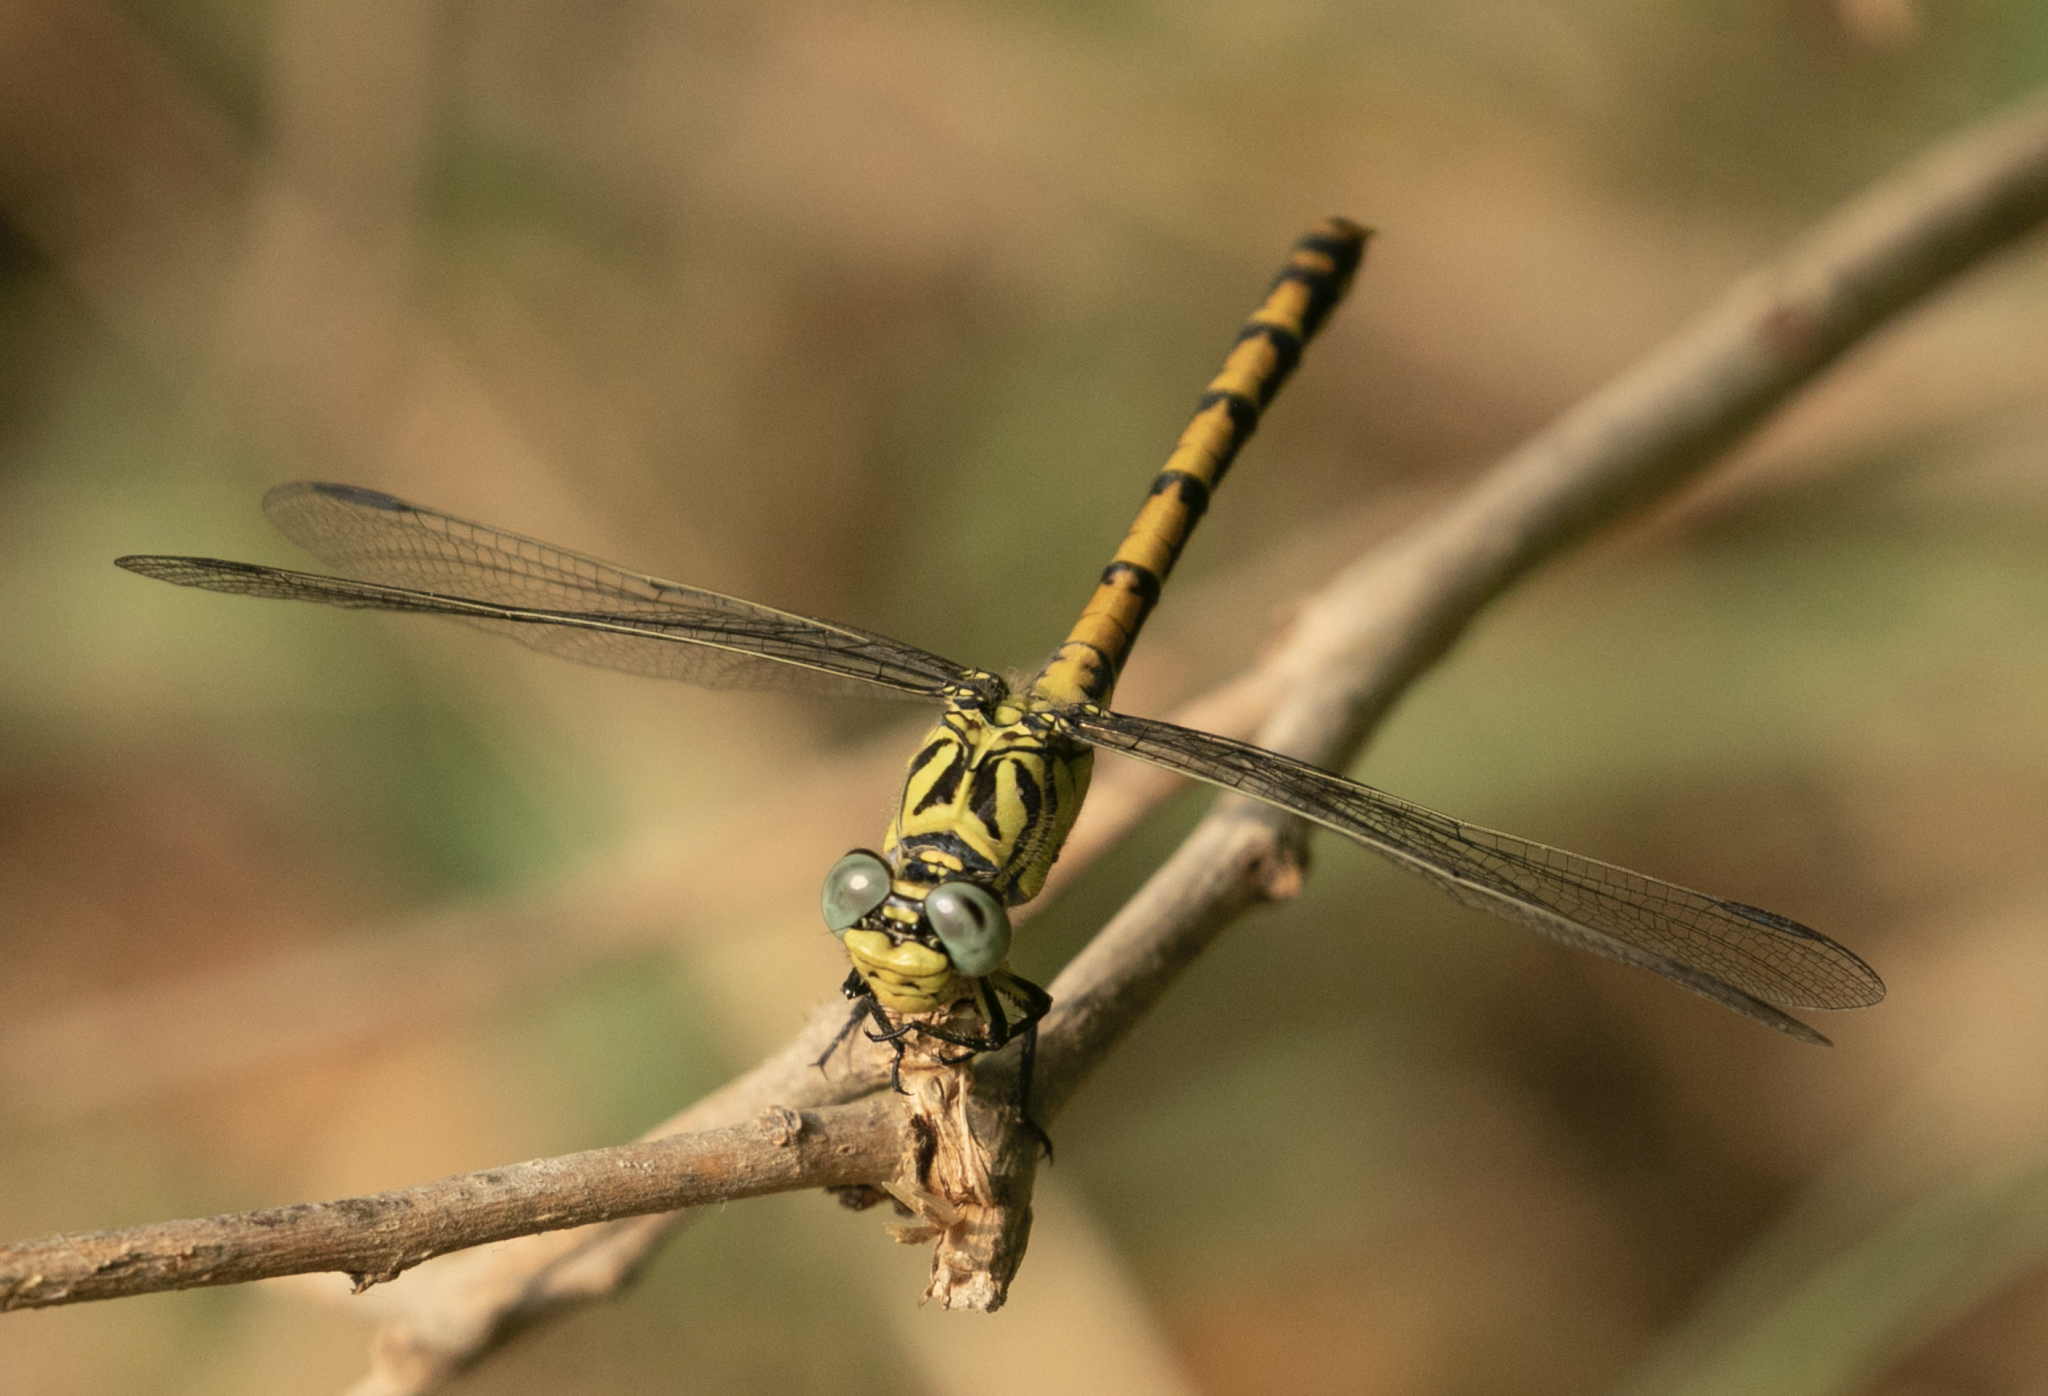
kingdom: Animalia
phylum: Arthropoda
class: Insecta
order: Odonata
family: Gomphidae
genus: Onychogomphus
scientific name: Onychogomphus forcipatus
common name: Small pincertail
